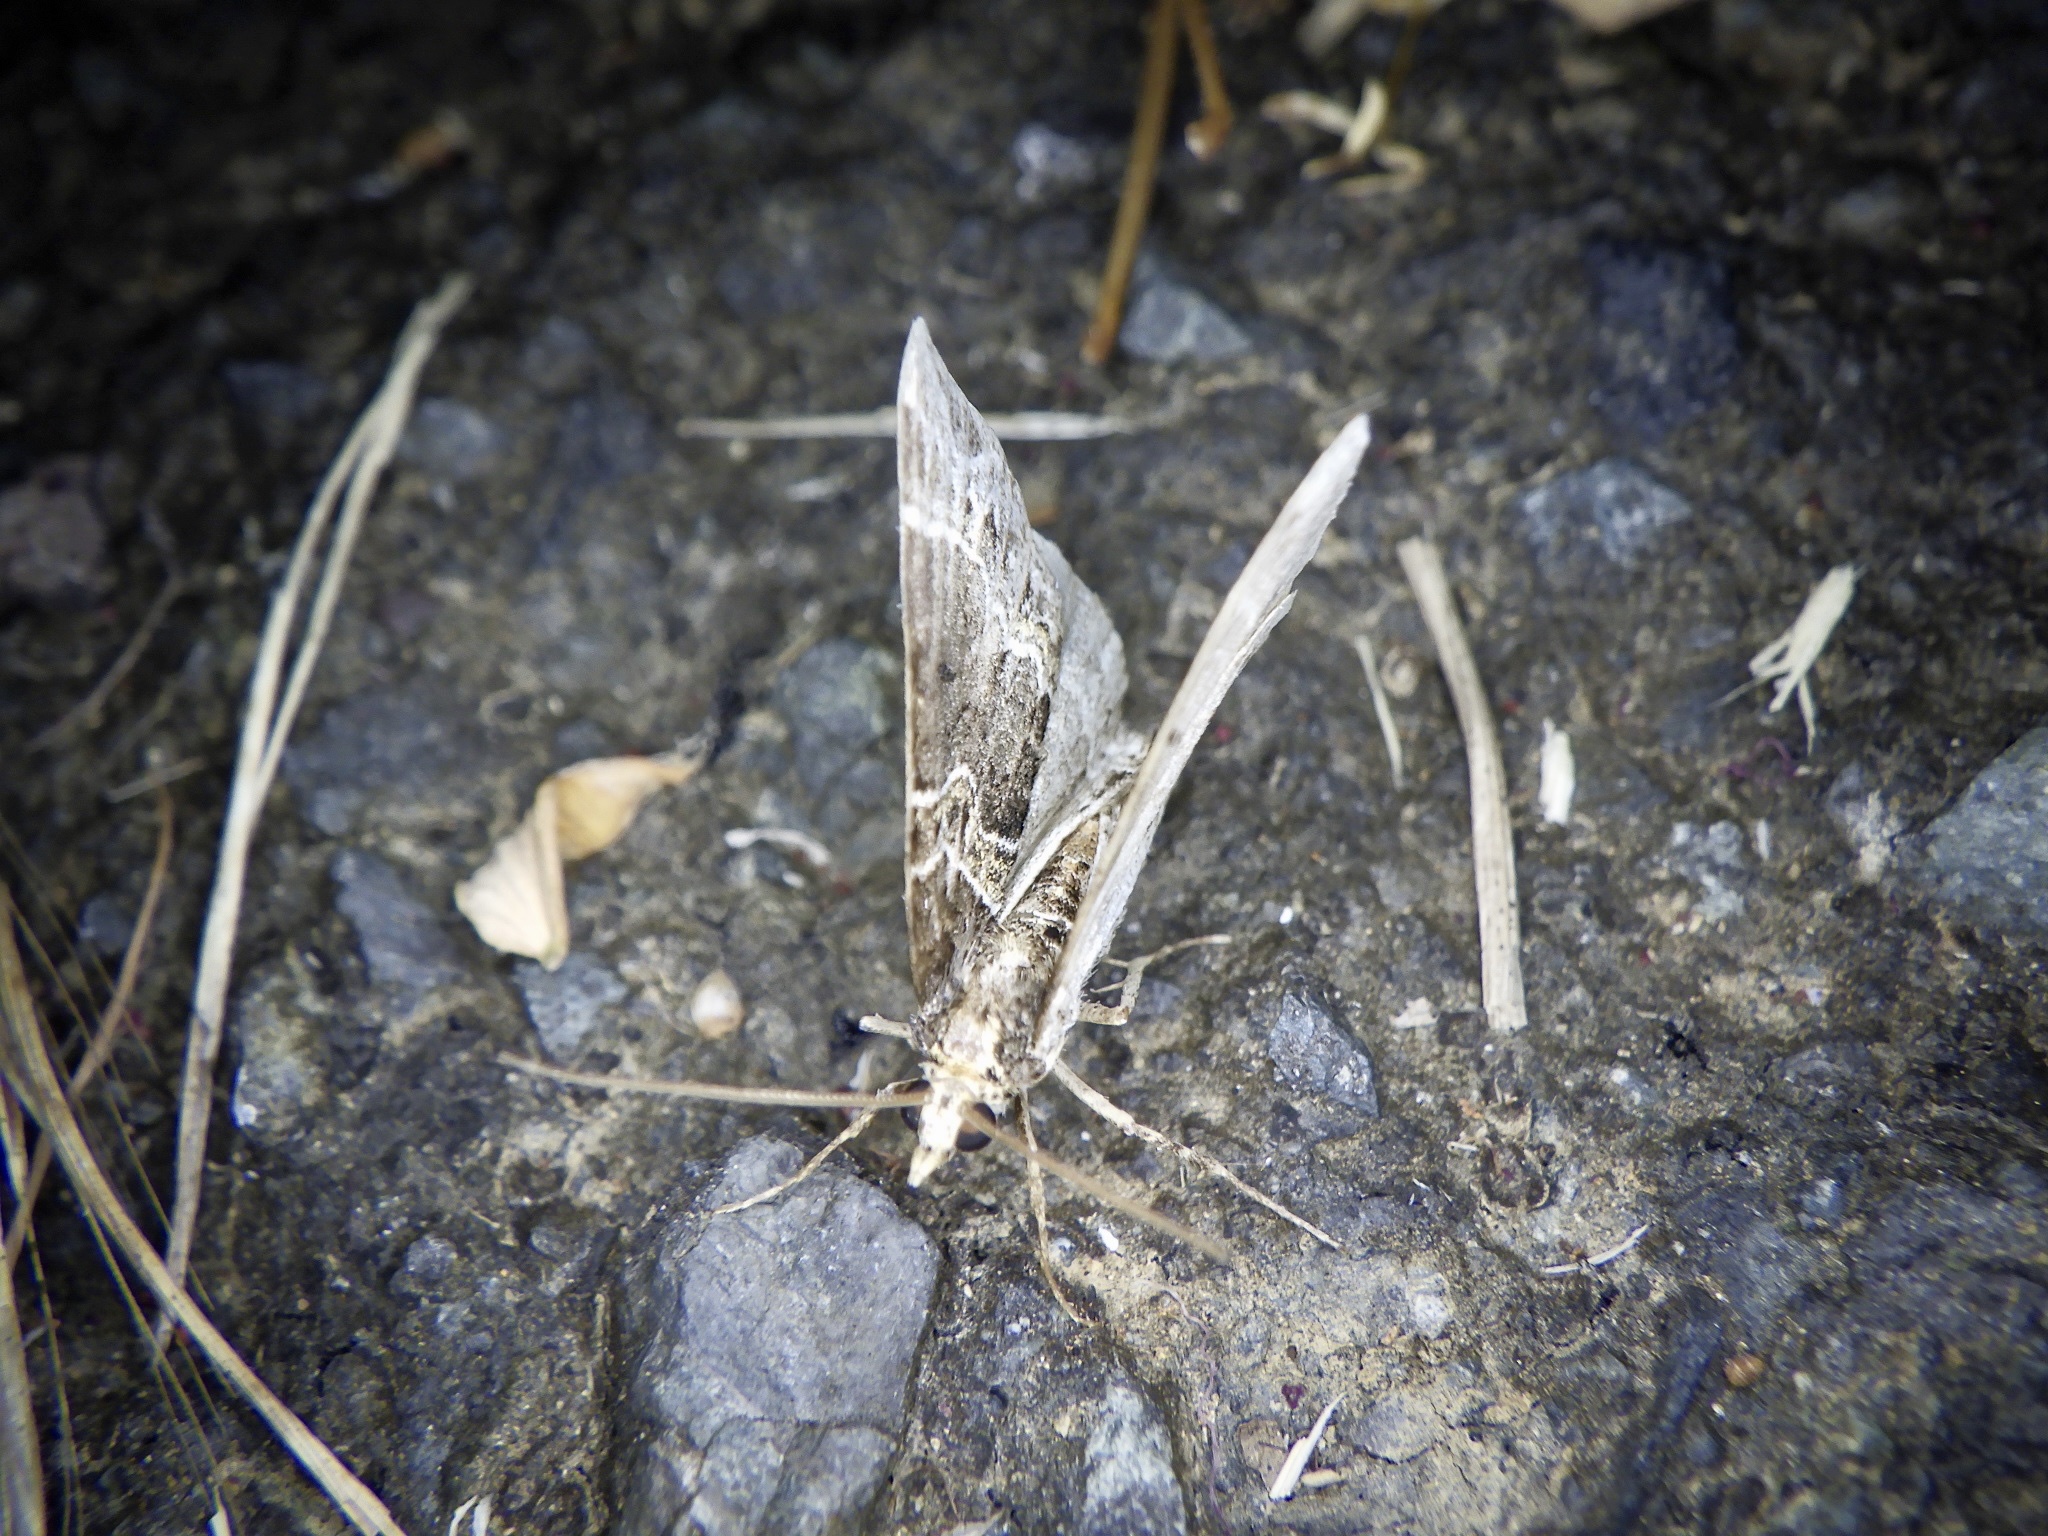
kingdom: Animalia
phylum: Arthropoda
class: Insecta
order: Lepidoptera
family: Geometridae
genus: Ecliptopera
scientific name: Ecliptopera umbrosaria
